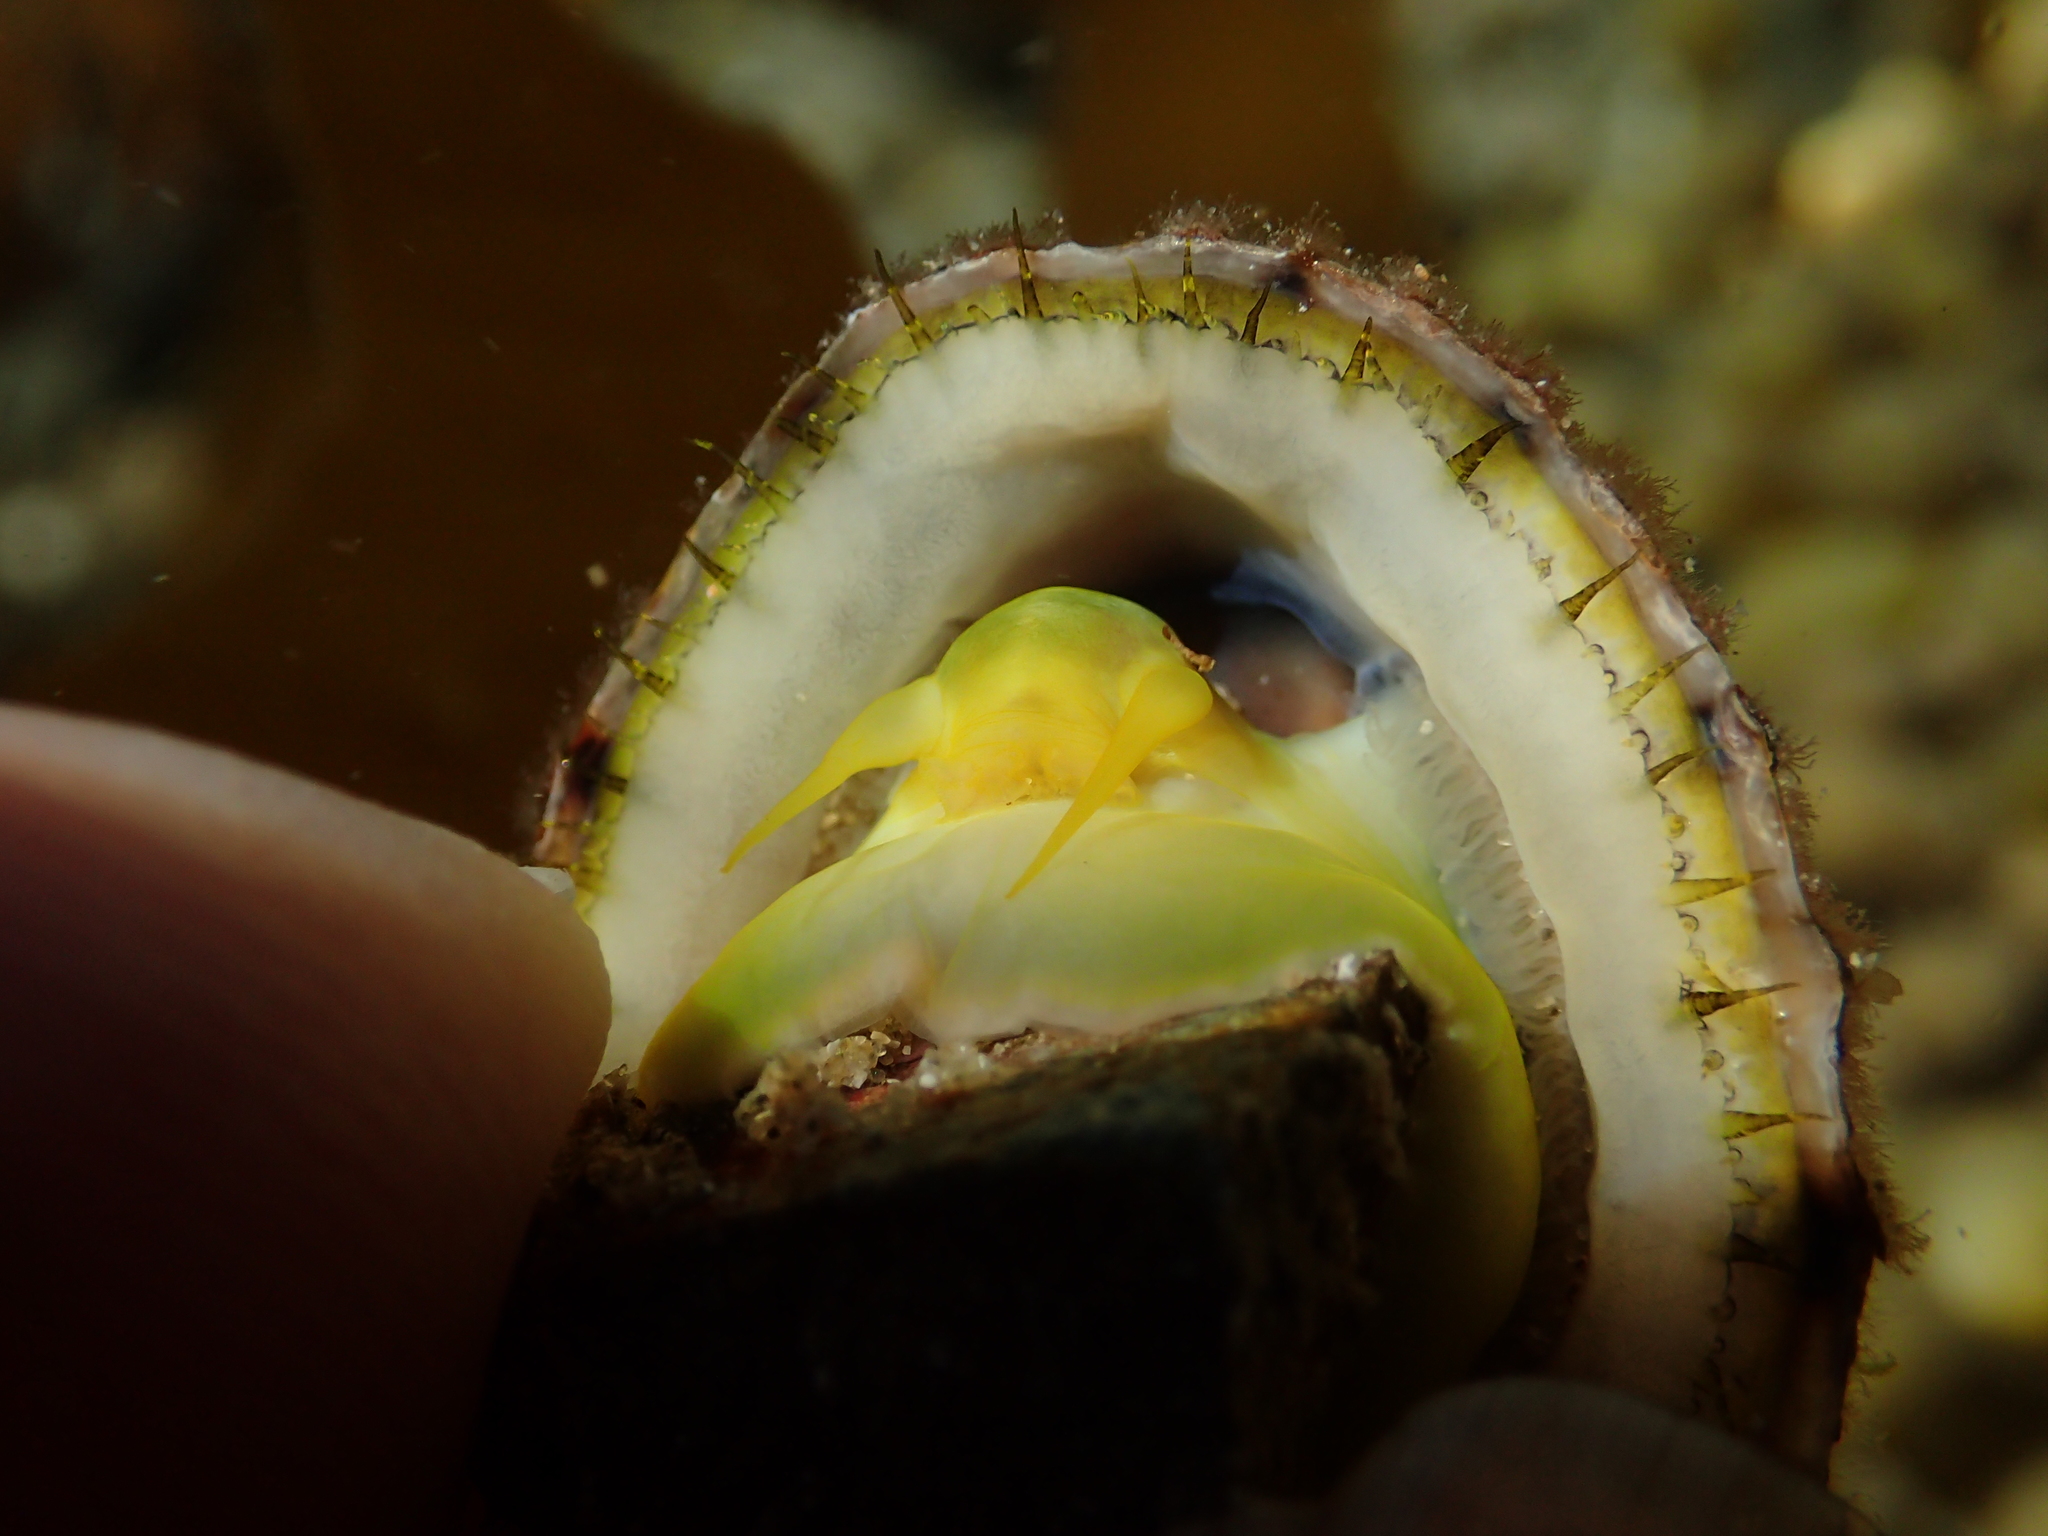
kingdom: Animalia
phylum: Mollusca
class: Gastropoda
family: Nacellidae
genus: Cellana
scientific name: Cellana radians
